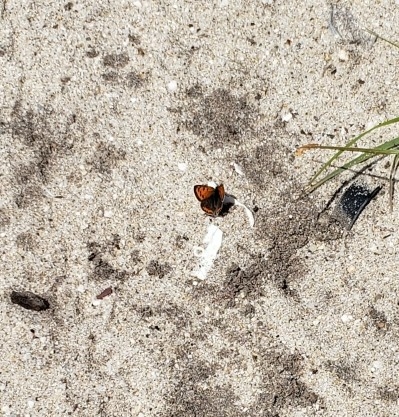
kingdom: Animalia
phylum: Arthropoda
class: Insecta
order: Lepidoptera
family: Lycaenidae
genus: Lycaena
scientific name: Lycaena hypophlaeas
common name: American copper
